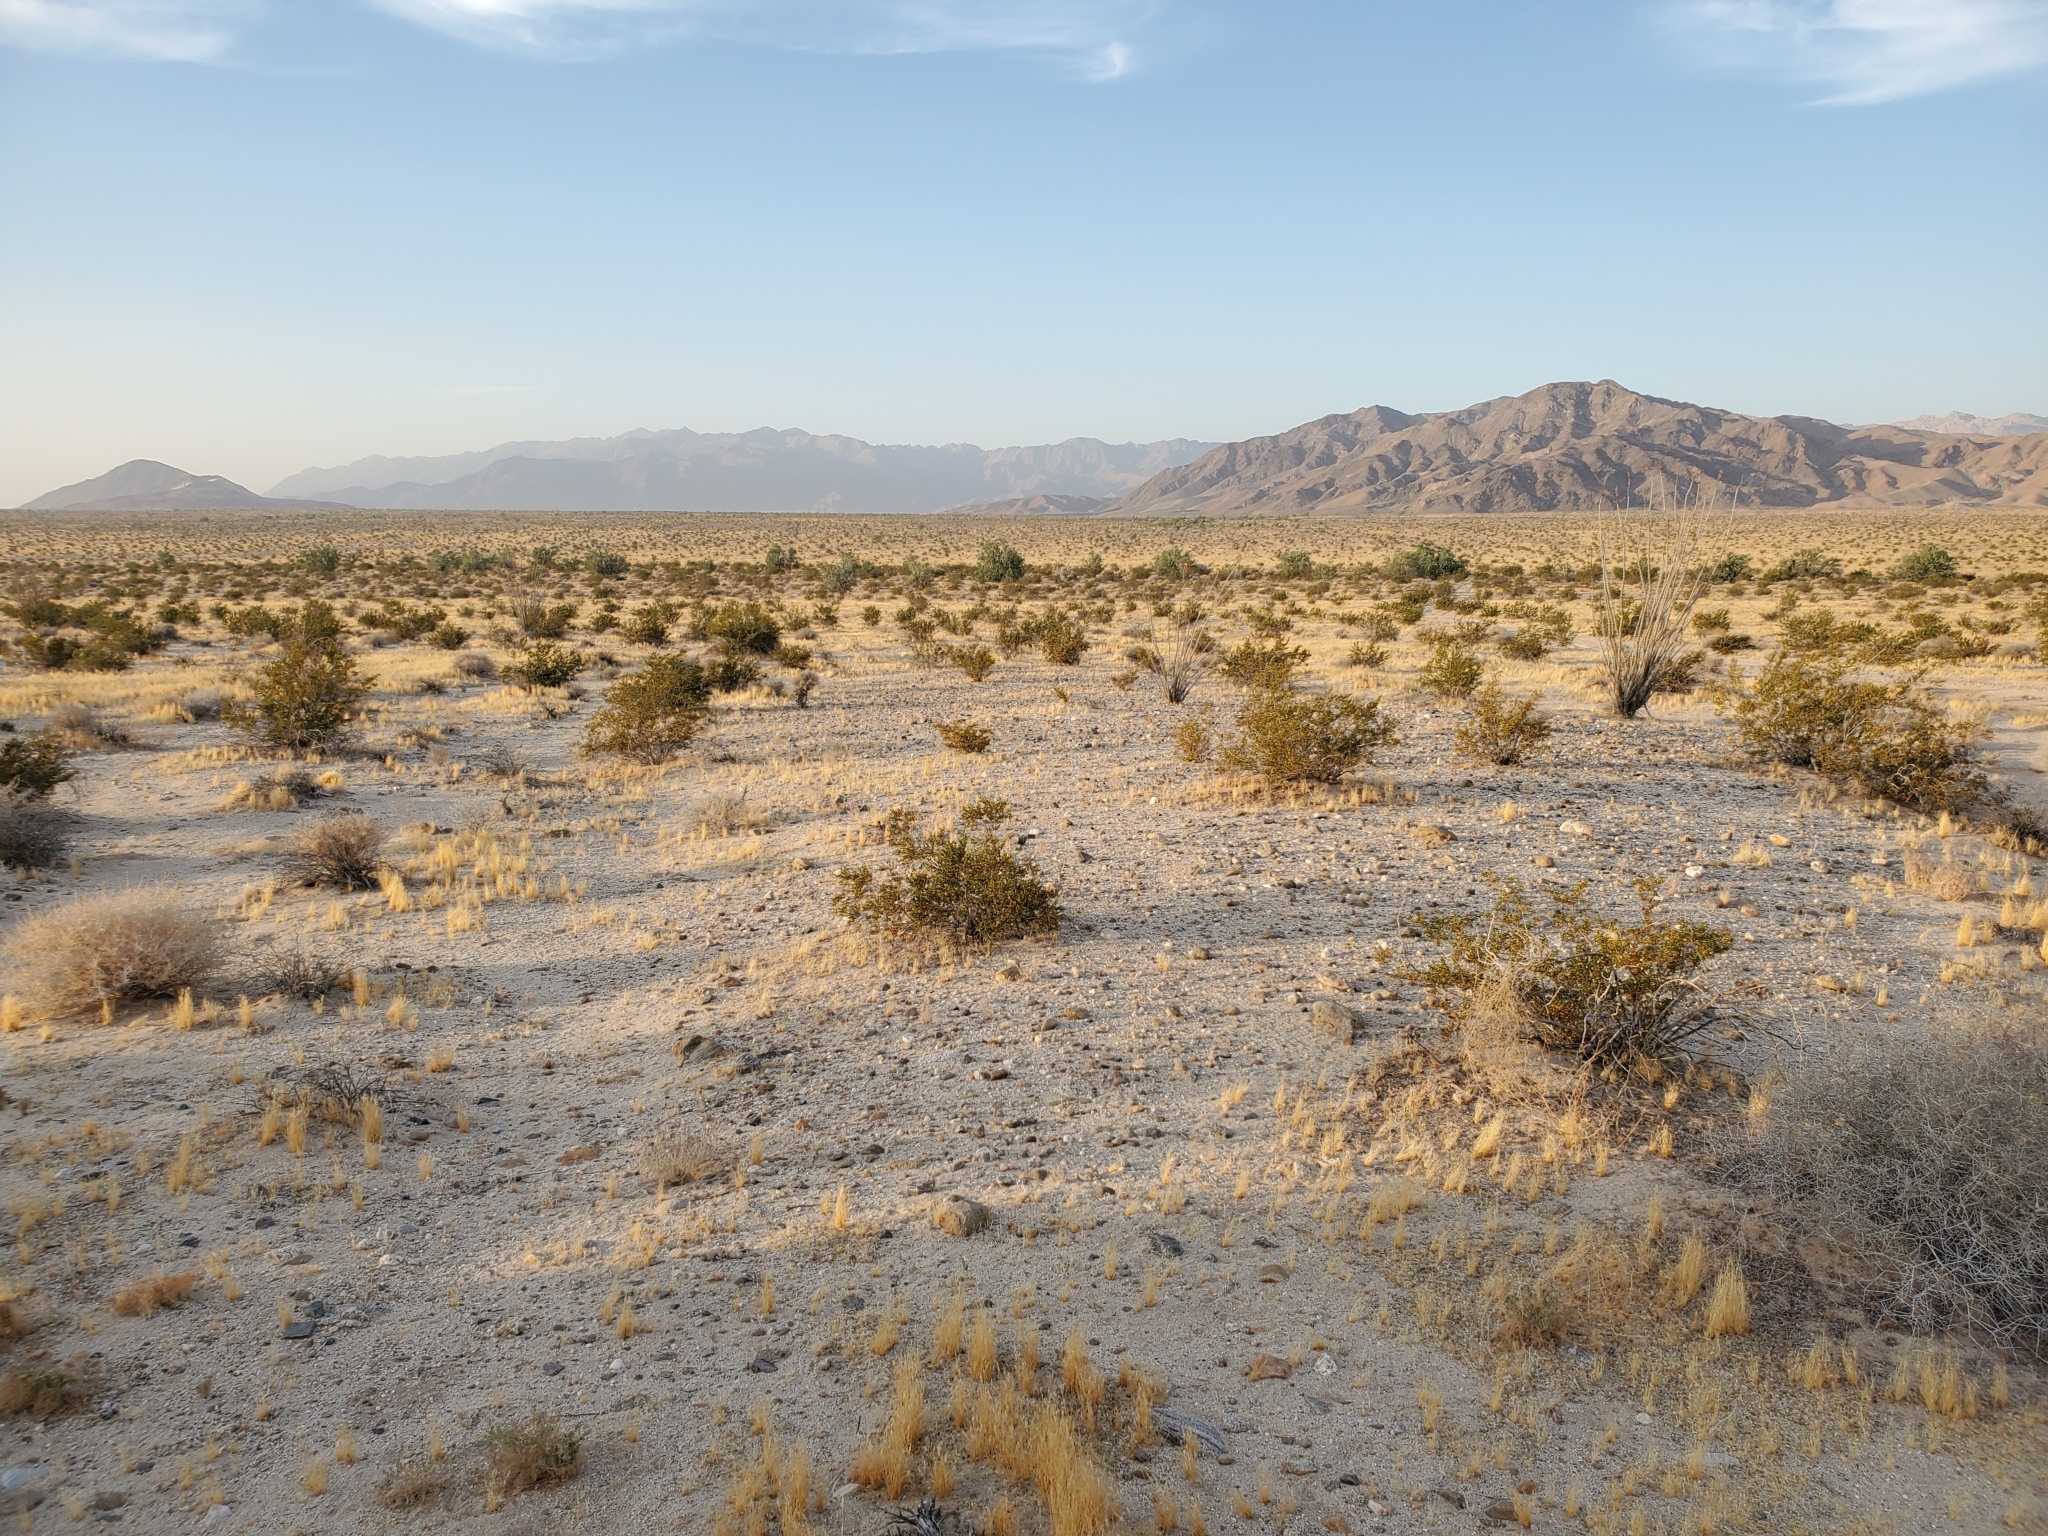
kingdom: Plantae
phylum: Tracheophyta
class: Magnoliopsida
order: Zygophyllales
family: Zygophyllaceae
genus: Larrea
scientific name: Larrea tridentata
